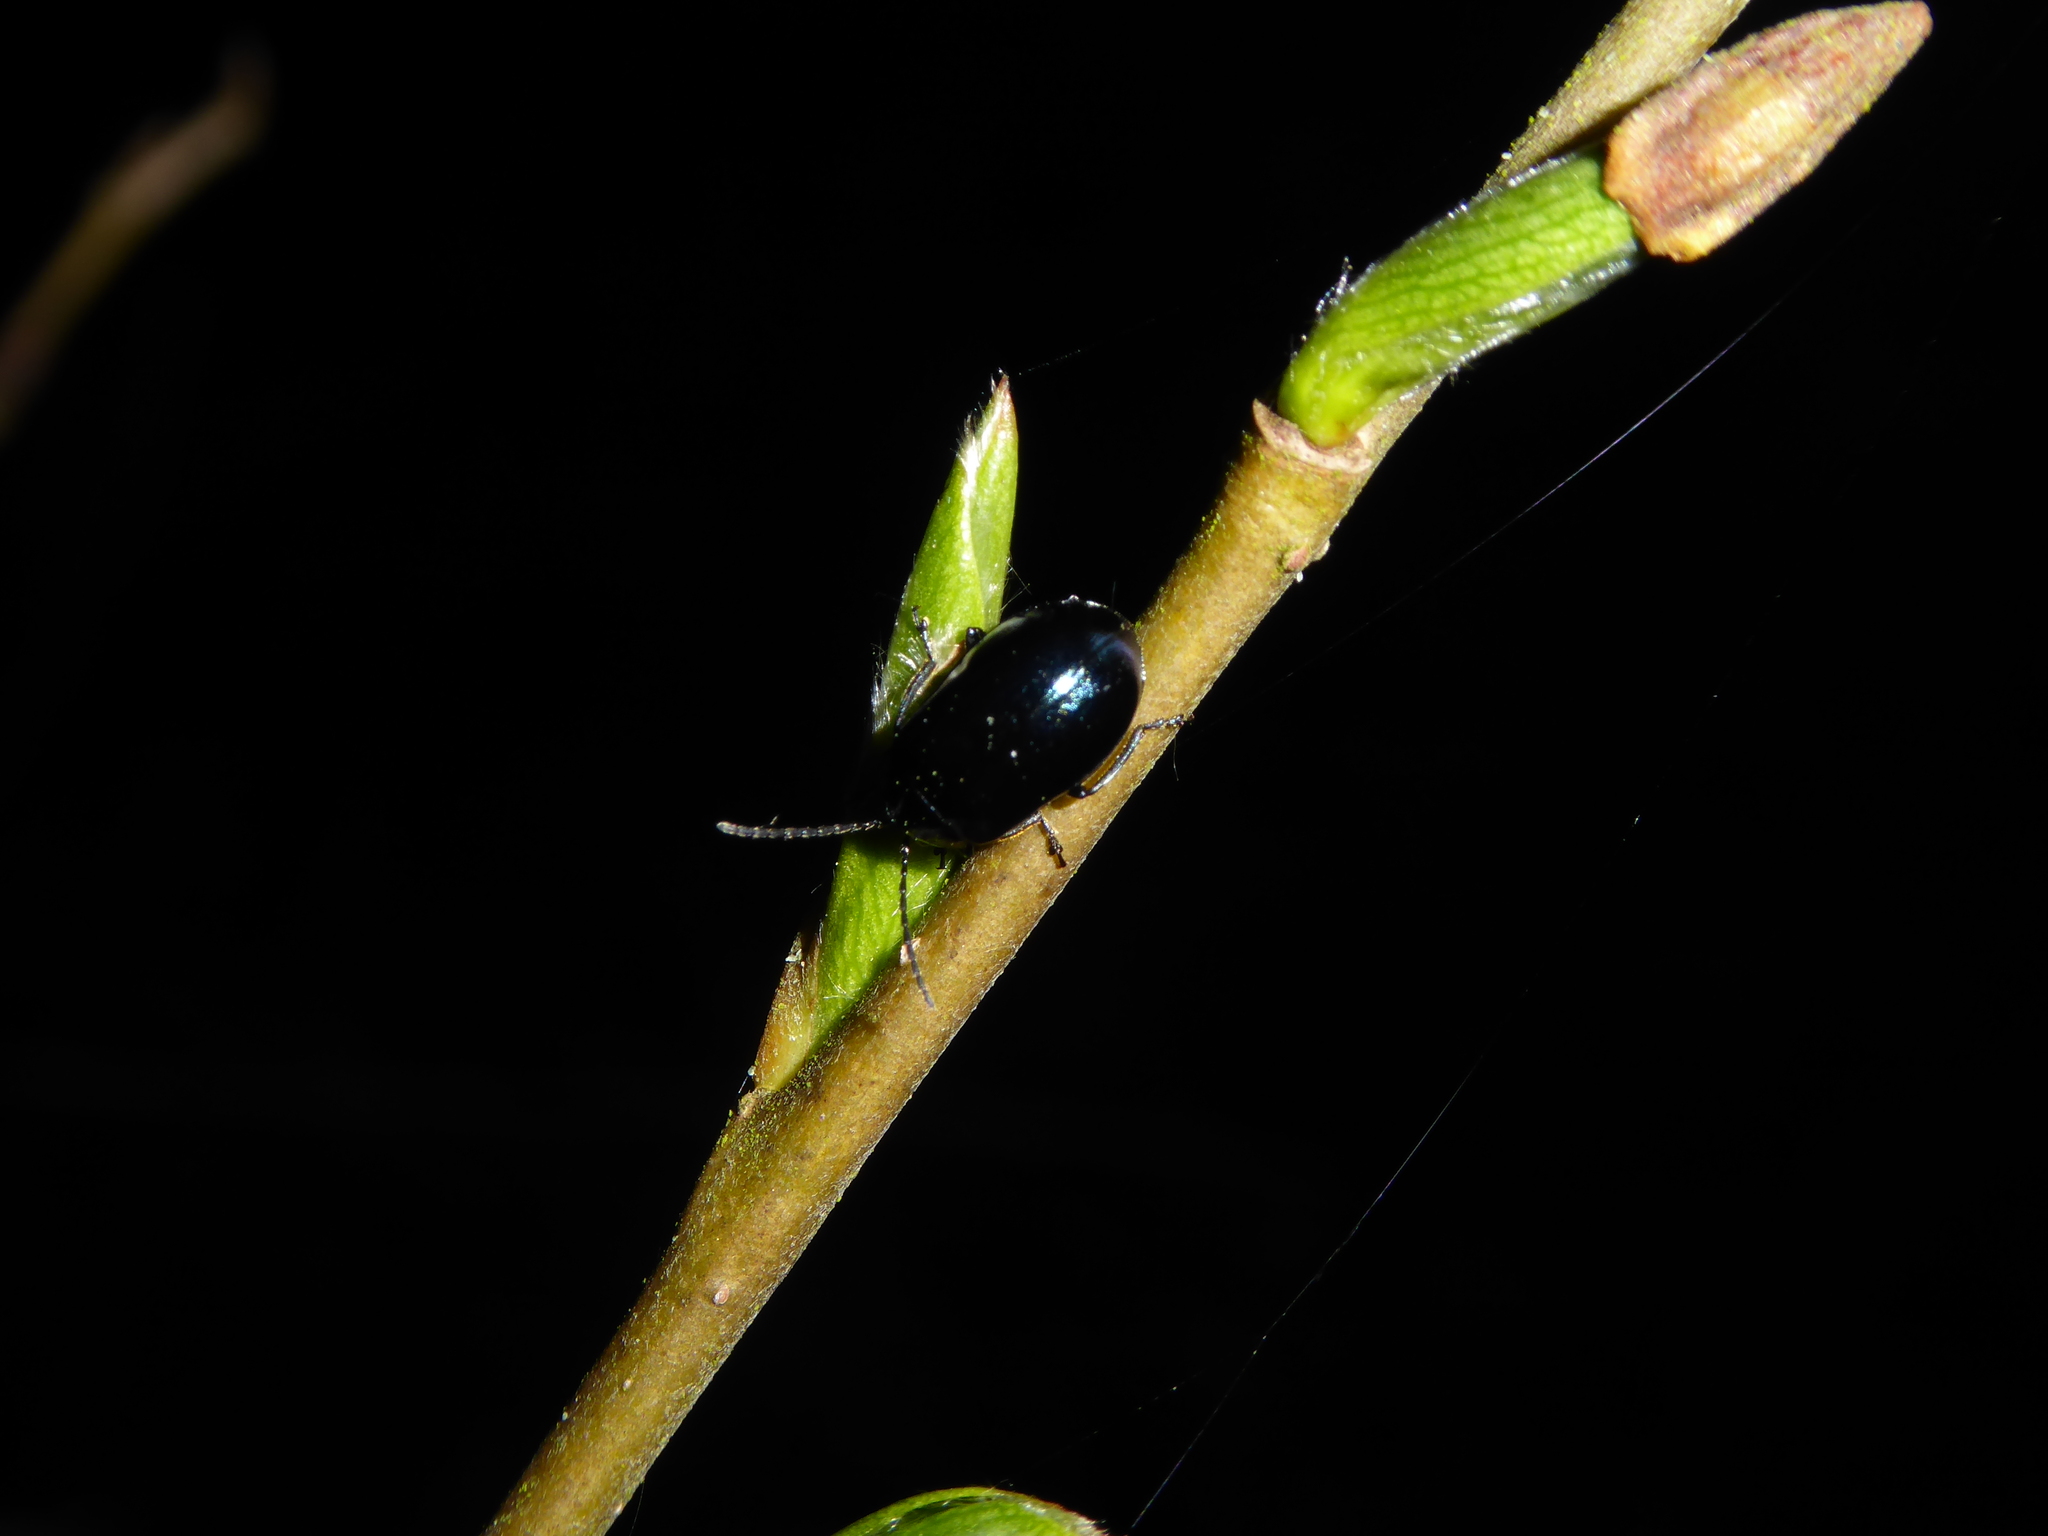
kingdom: Animalia
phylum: Arthropoda
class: Insecta
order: Coleoptera
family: Chrysomelidae
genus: Agelastica
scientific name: Agelastica alni
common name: Alder leaf beetle
